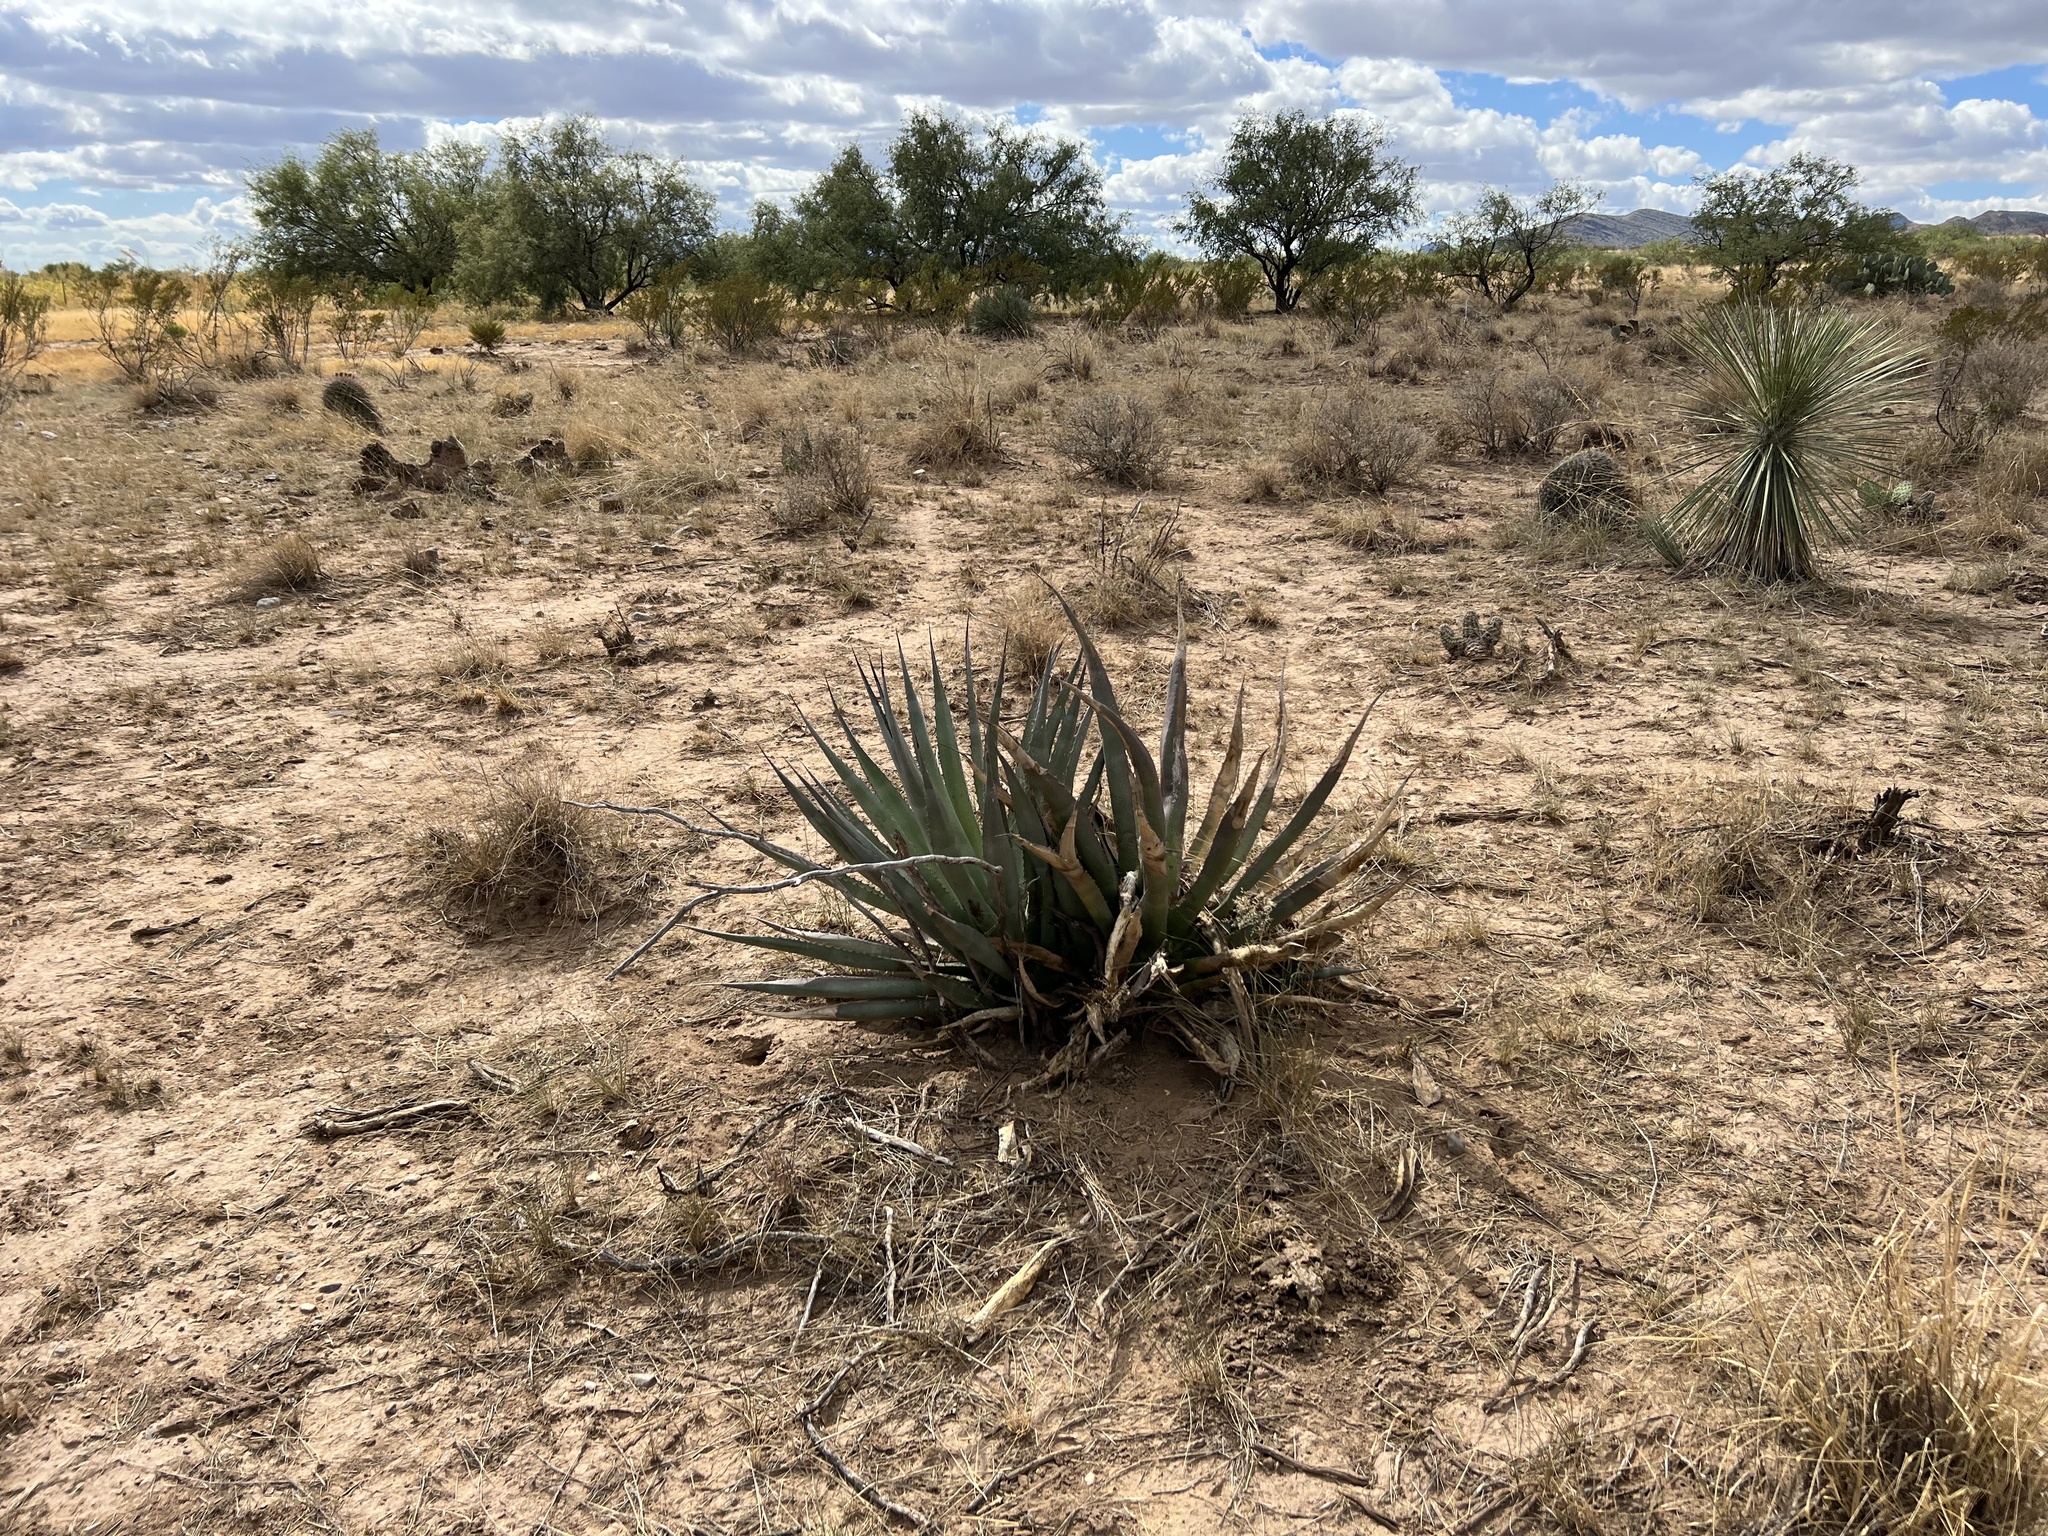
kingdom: Plantae
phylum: Tracheophyta
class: Liliopsida
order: Asparagales
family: Asparagaceae
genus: Agave
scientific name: Agave palmeri
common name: Palmer agave
